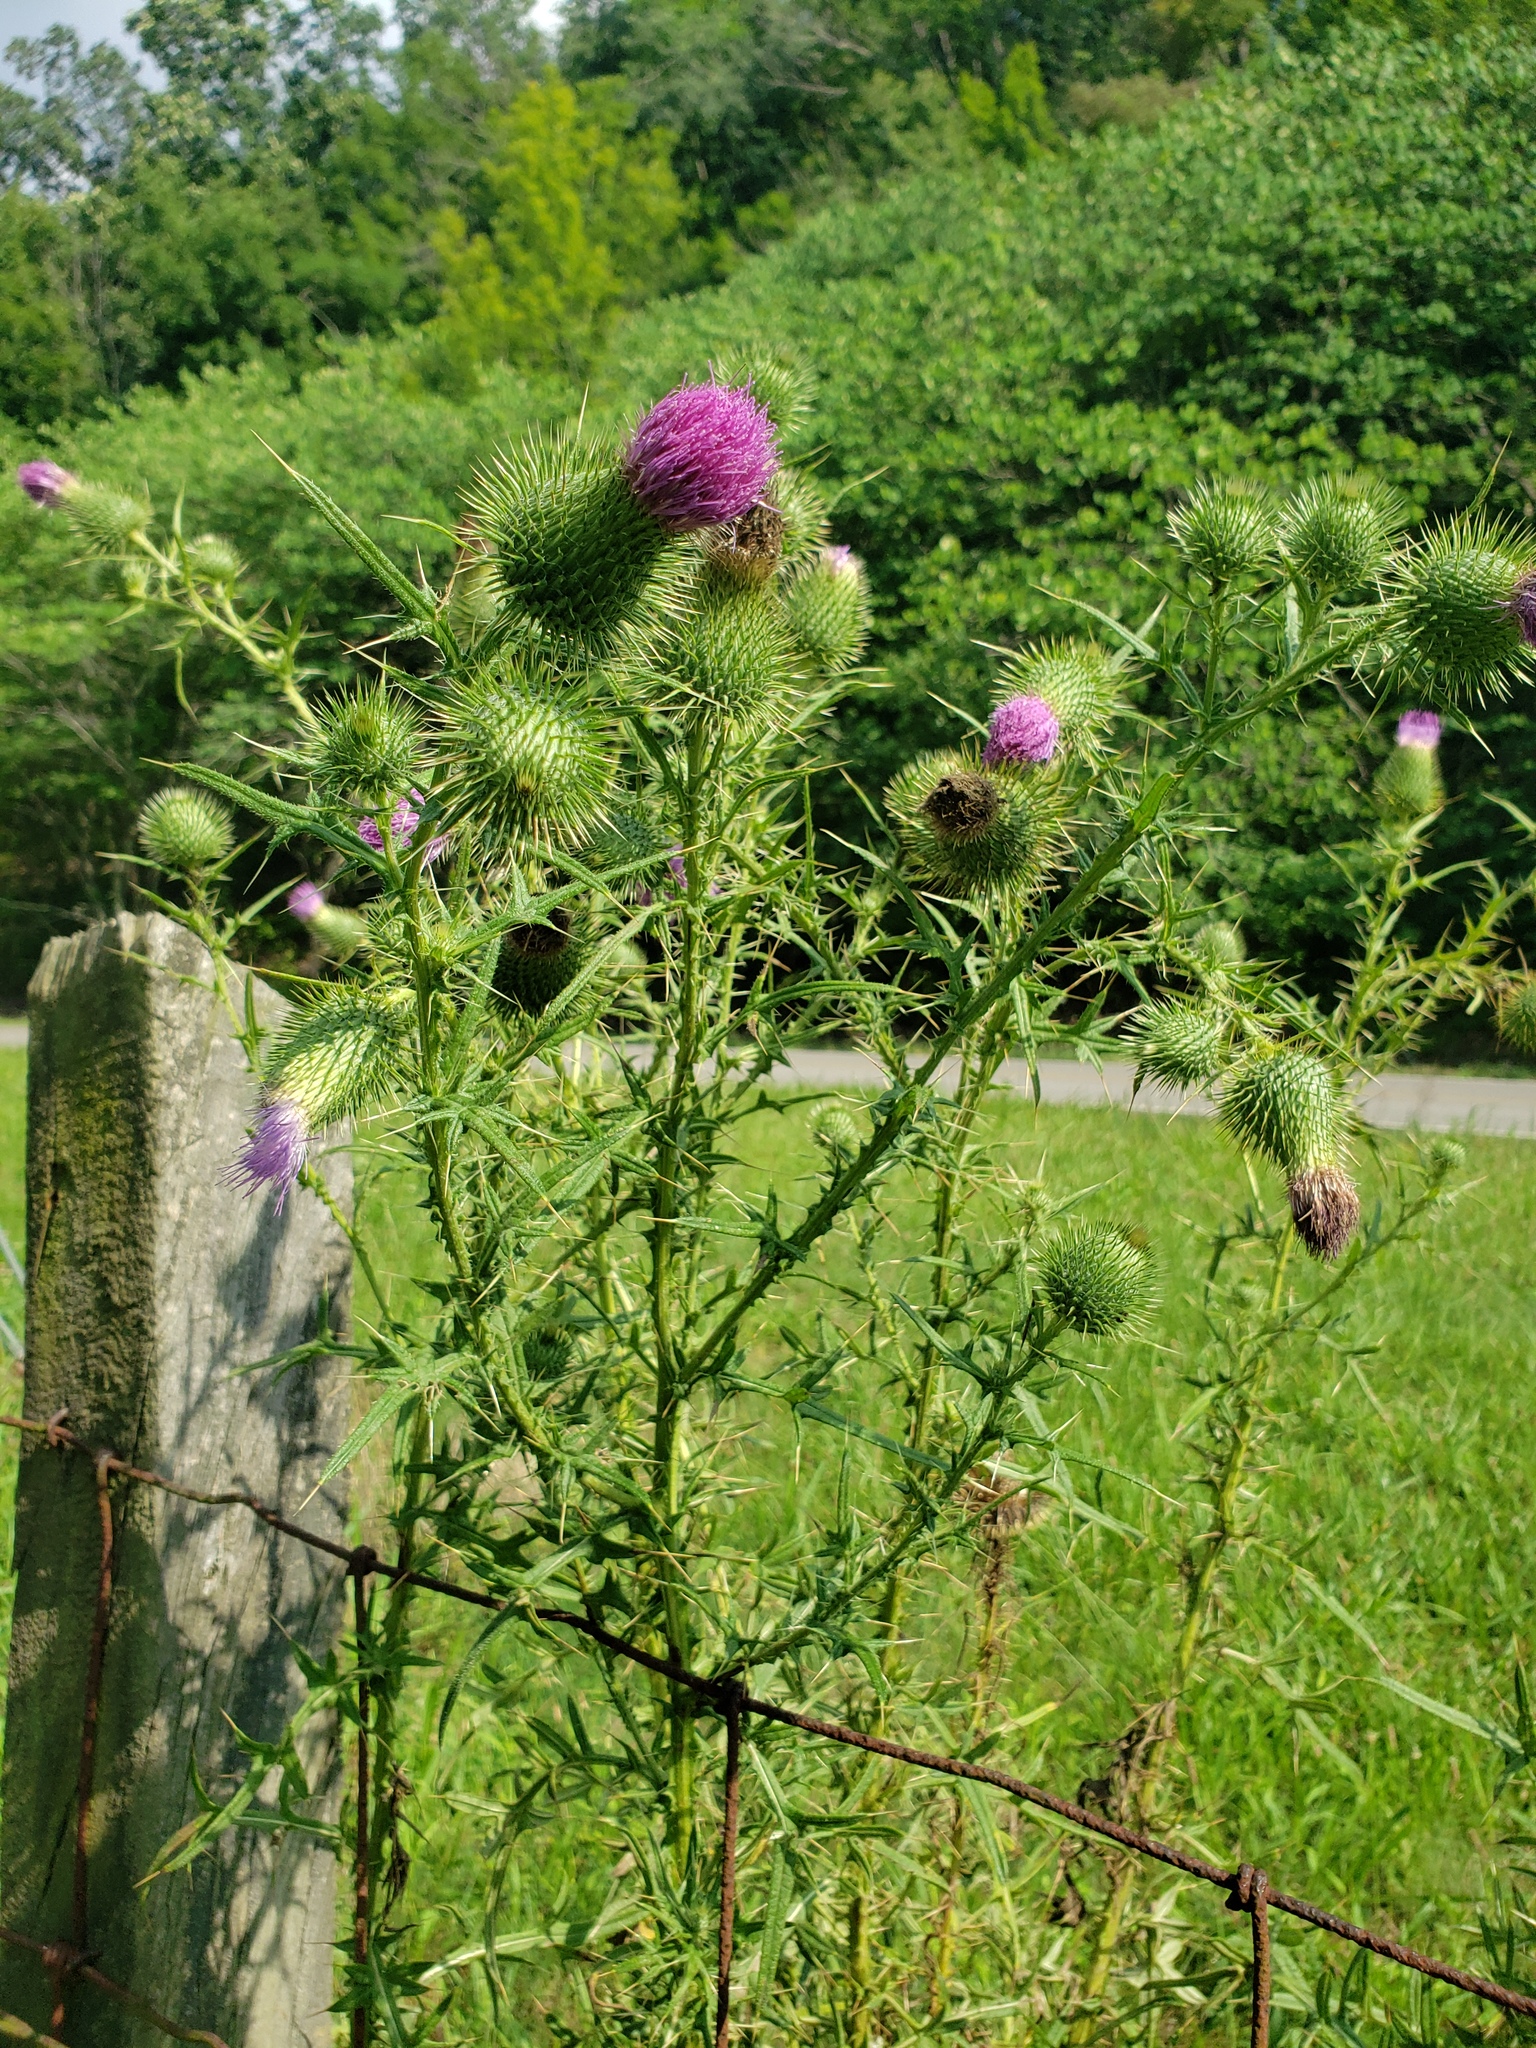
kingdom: Plantae
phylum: Tracheophyta
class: Magnoliopsida
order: Asterales
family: Asteraceae
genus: Cirsium
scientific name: Cirsium vulgare
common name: Bull thistle
